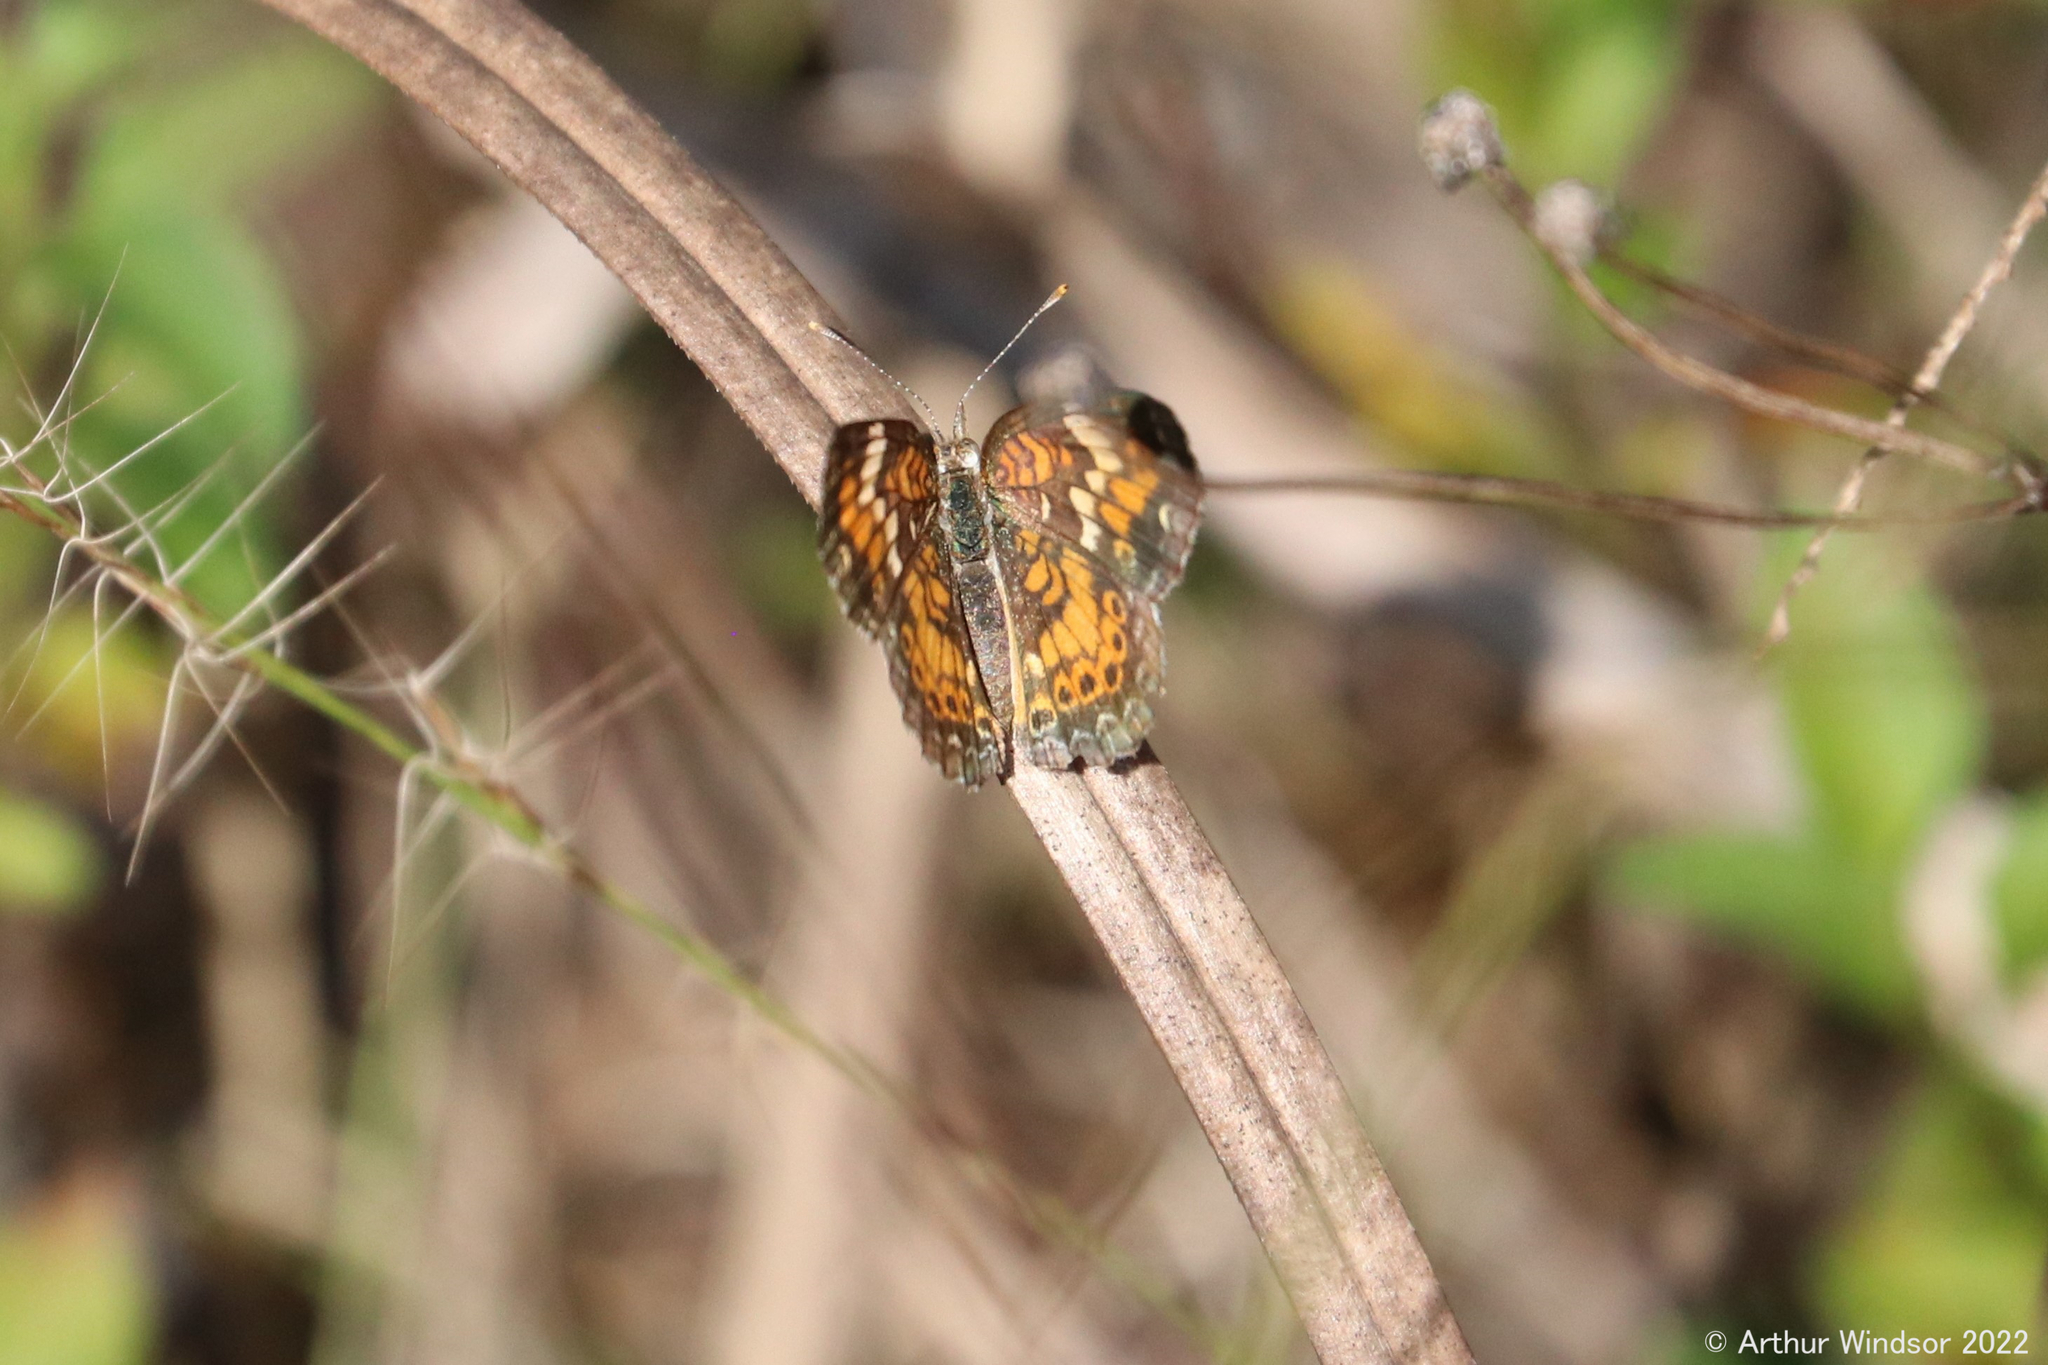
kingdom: Animalia
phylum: Arthropoda
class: Insecta
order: Lepidoptera
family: Nymphalidae
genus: Phyciodes
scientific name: Phyciodes phaon
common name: Phaon crescent
